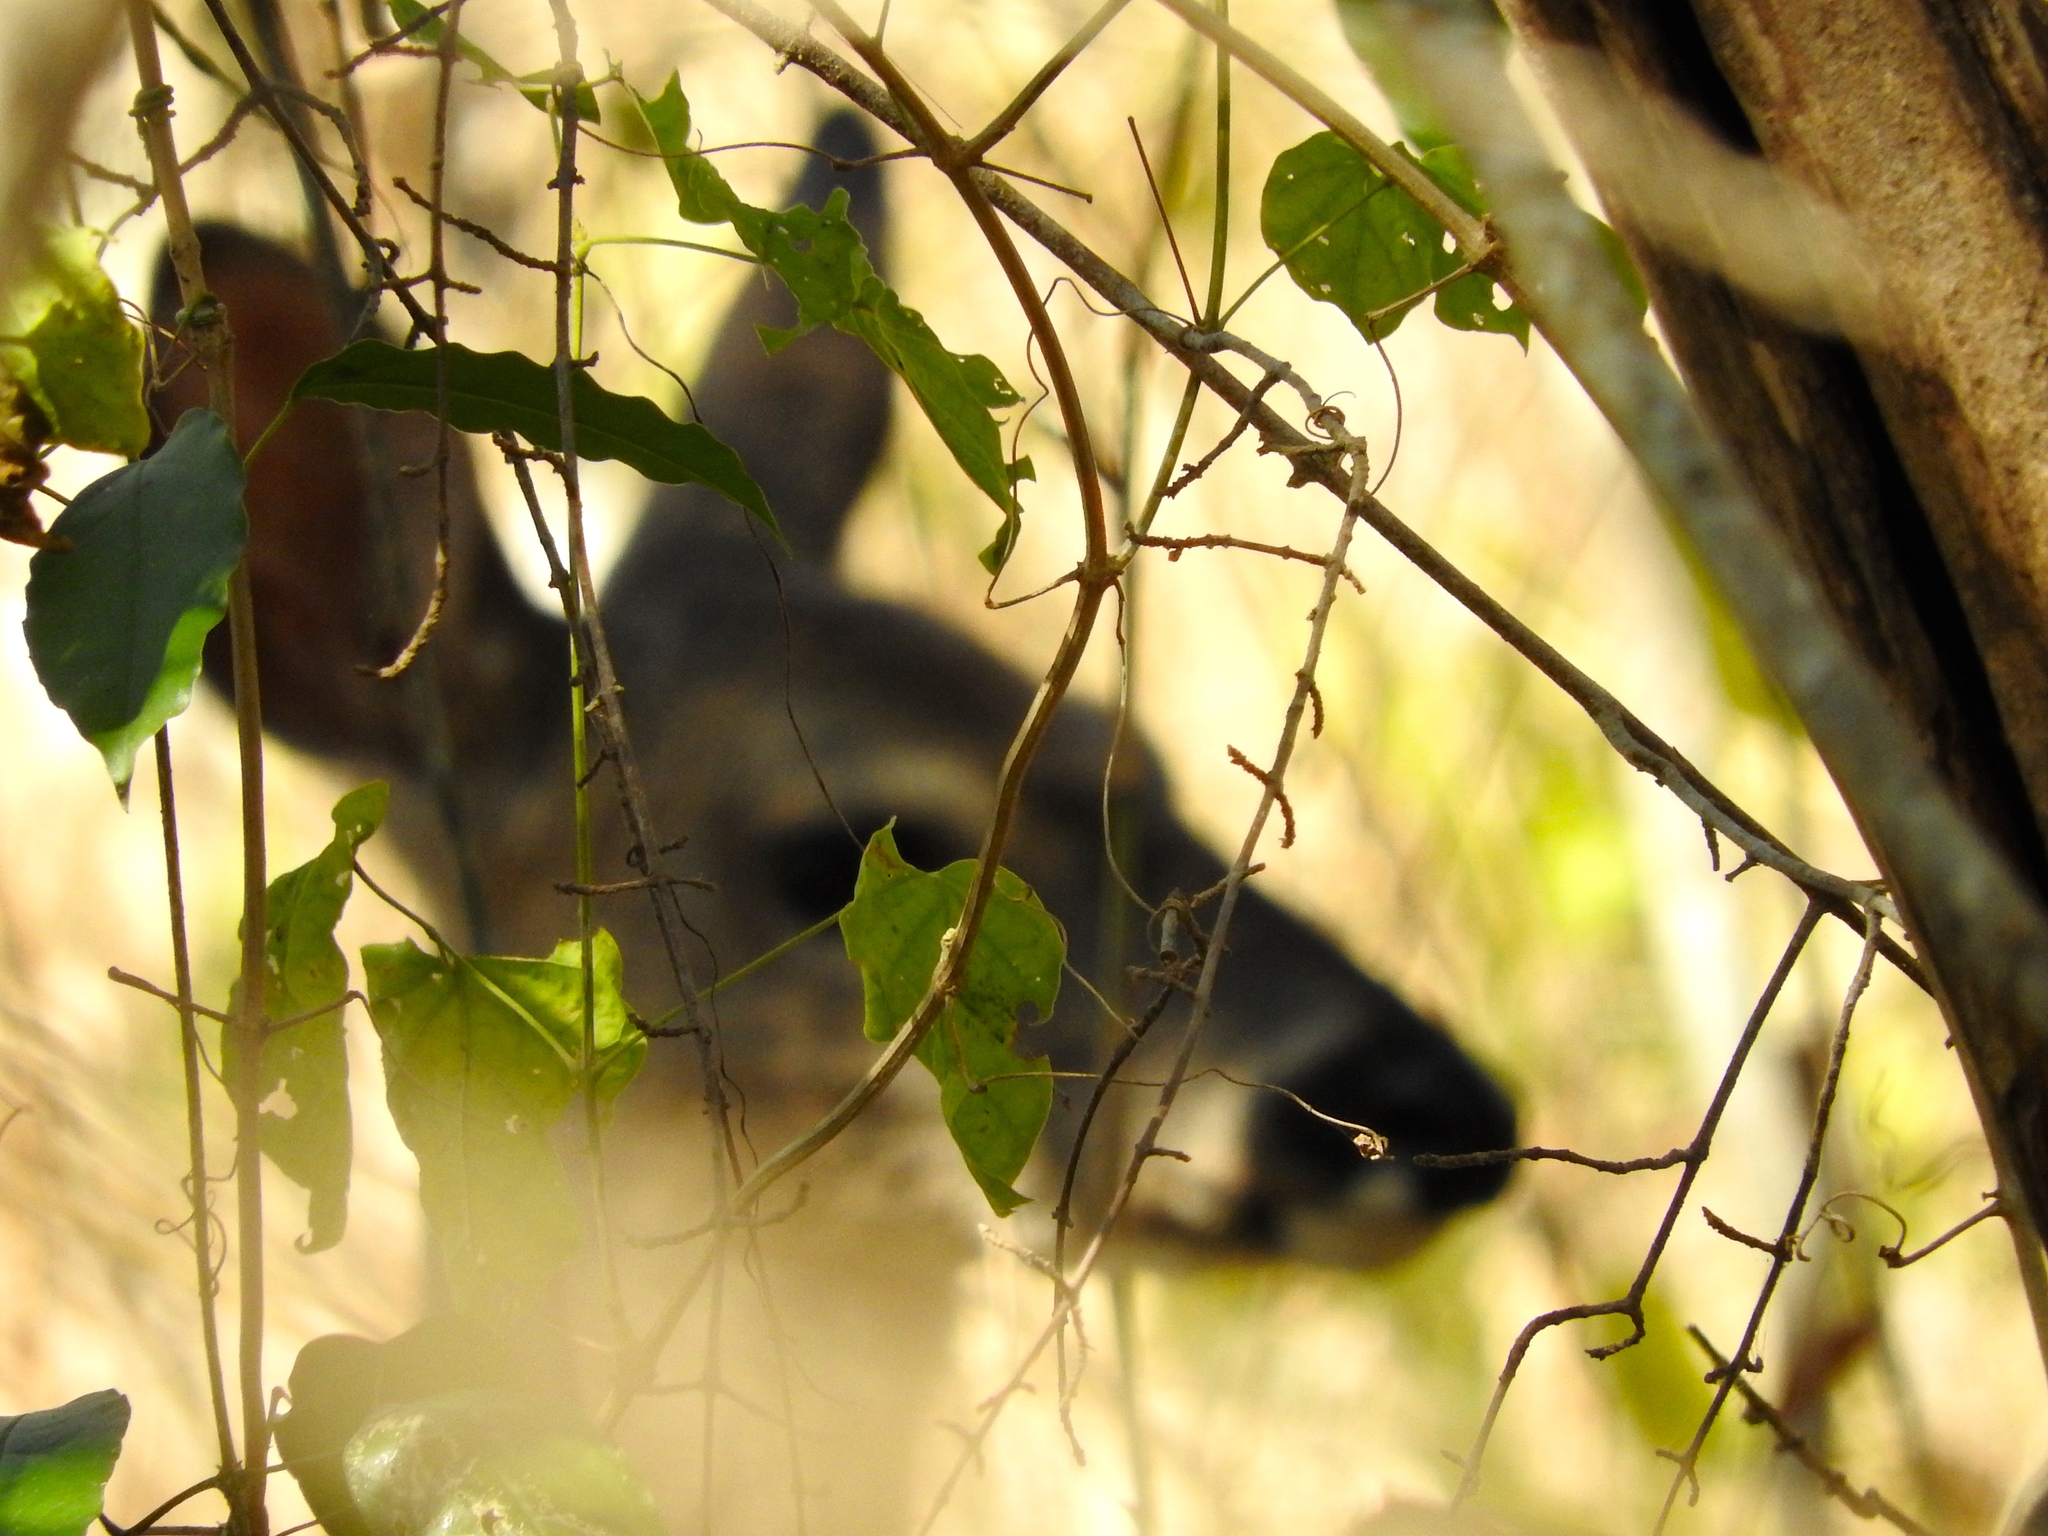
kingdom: Animalia
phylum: Chordata
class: Mammalia
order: Artiodactyla
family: Cervidae
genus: Odocoileus
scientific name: Odocoileus virginianus
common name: White-tailed deer
